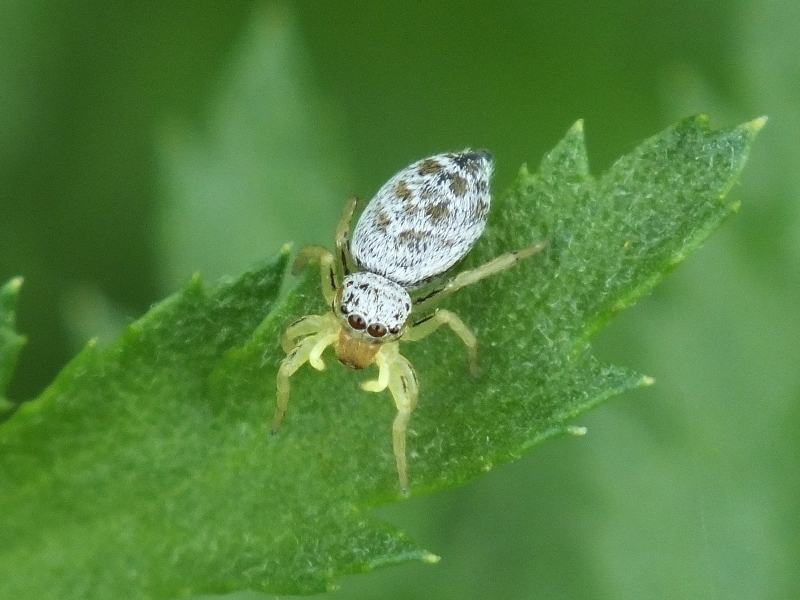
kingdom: Animalia
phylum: Arthropoda
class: Arachnida
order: Araneae
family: Salticidae
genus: Heliophanus
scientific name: Heliophanus simplex
